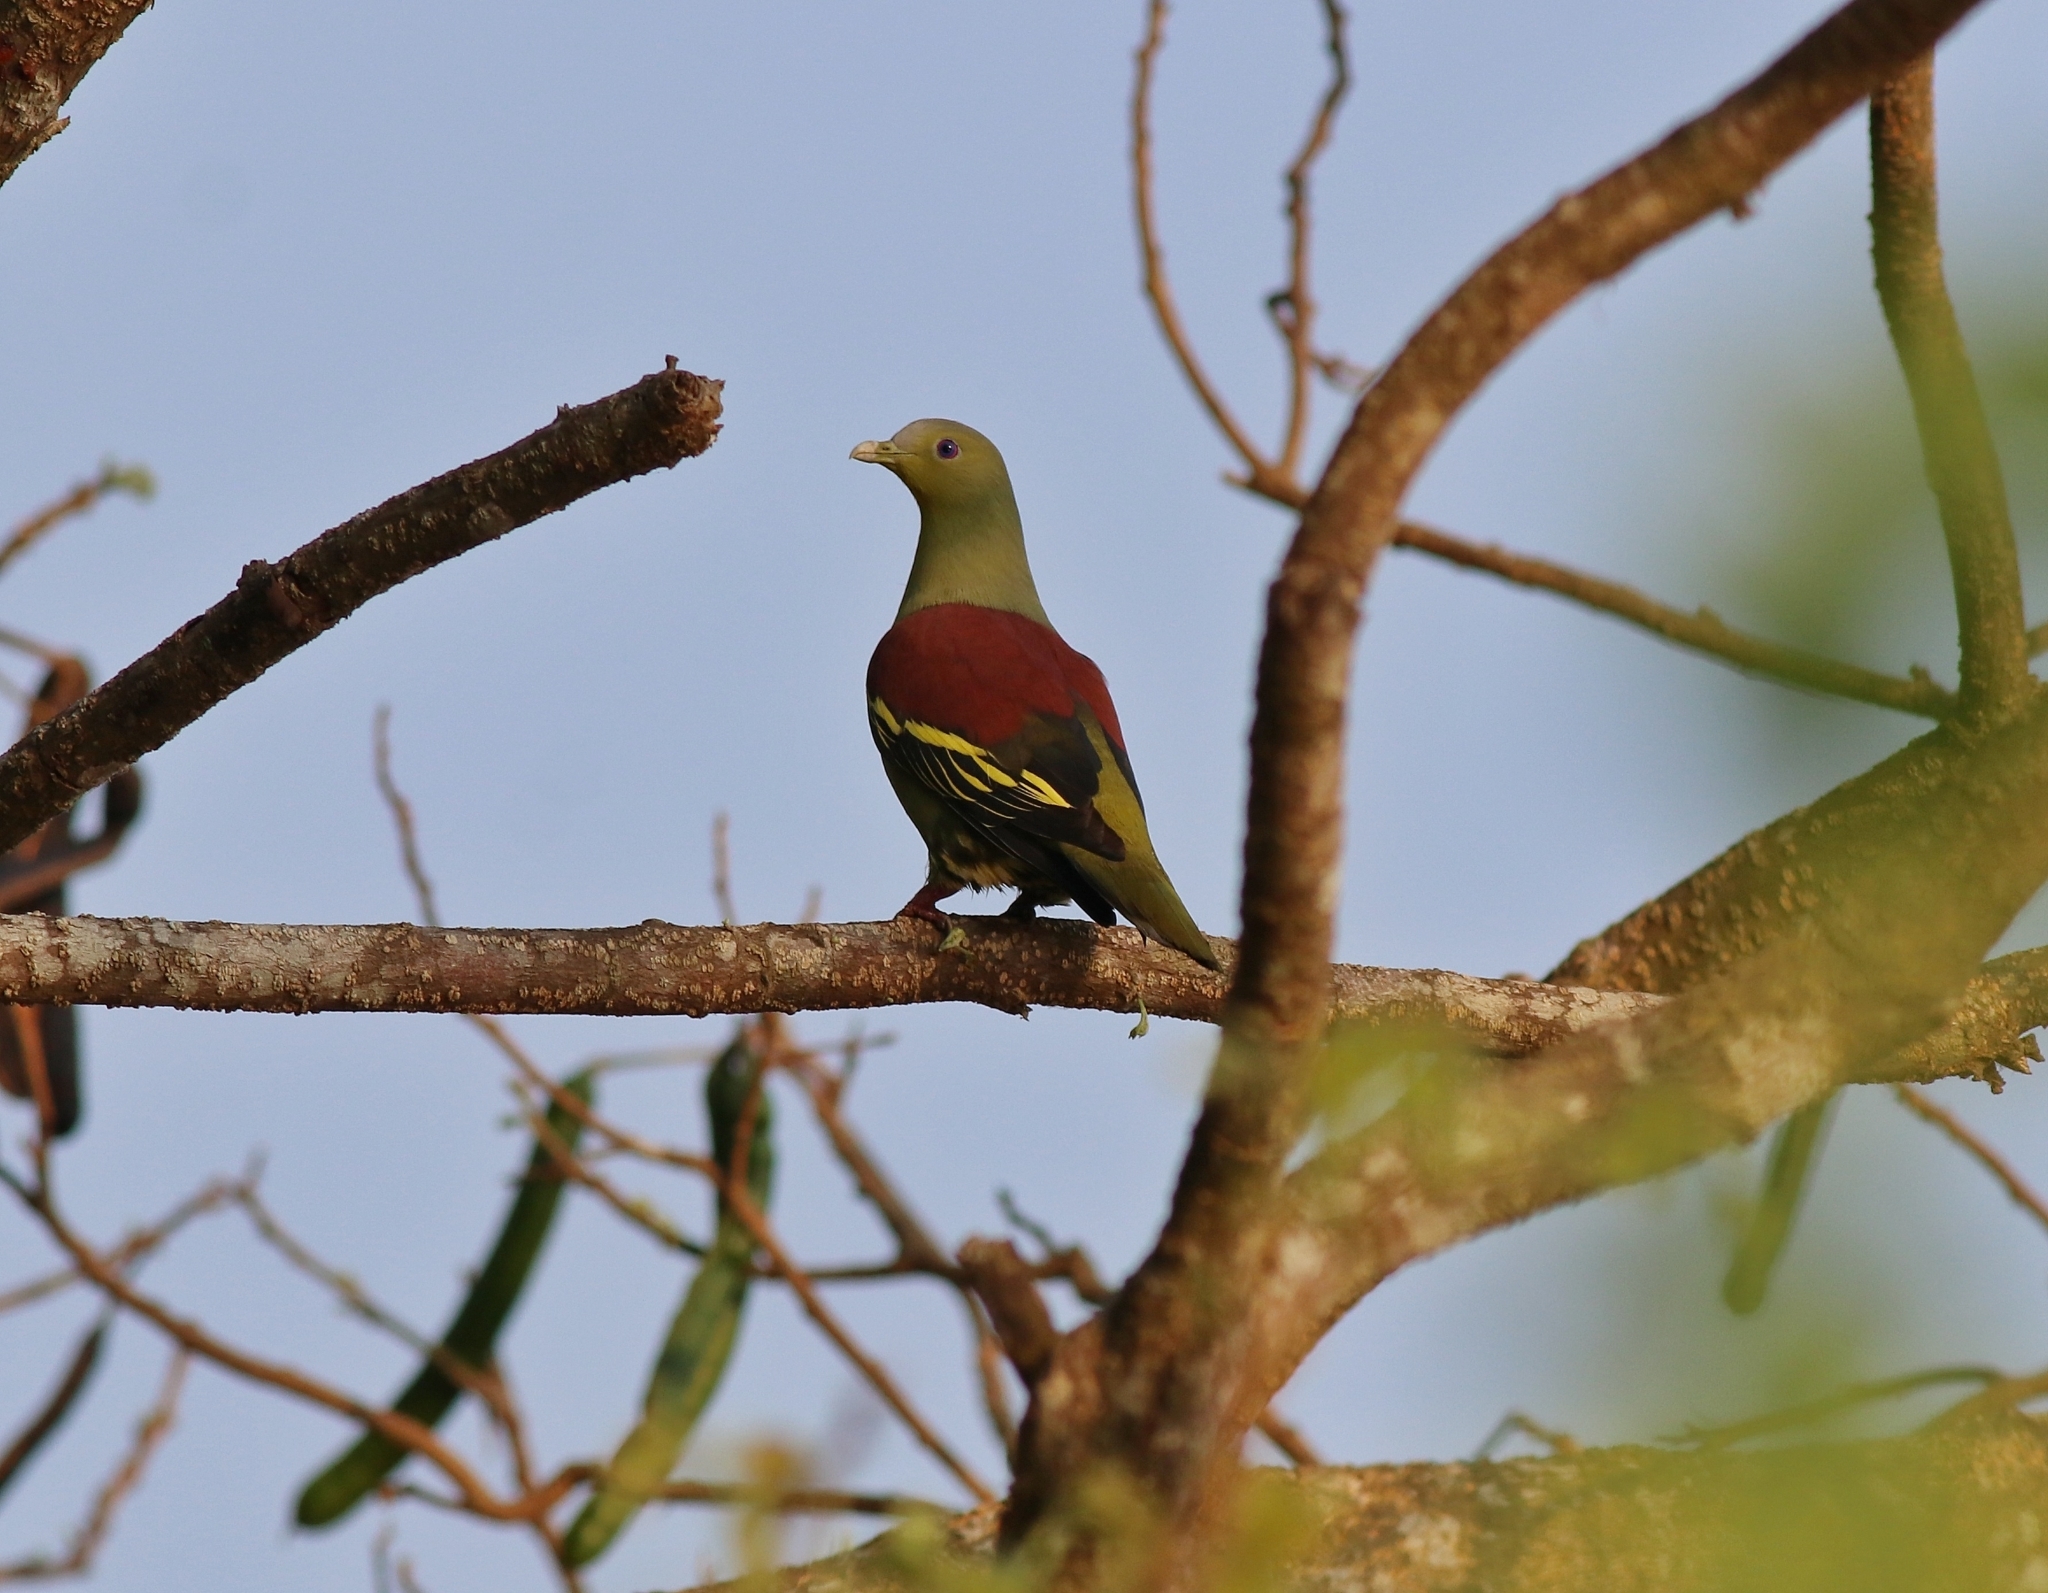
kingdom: Animalia
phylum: Chordata
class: Aves
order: Columbiformes
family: Columbidae
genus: Treron
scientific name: Treron affinis
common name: Grey-fronted green pigeon
